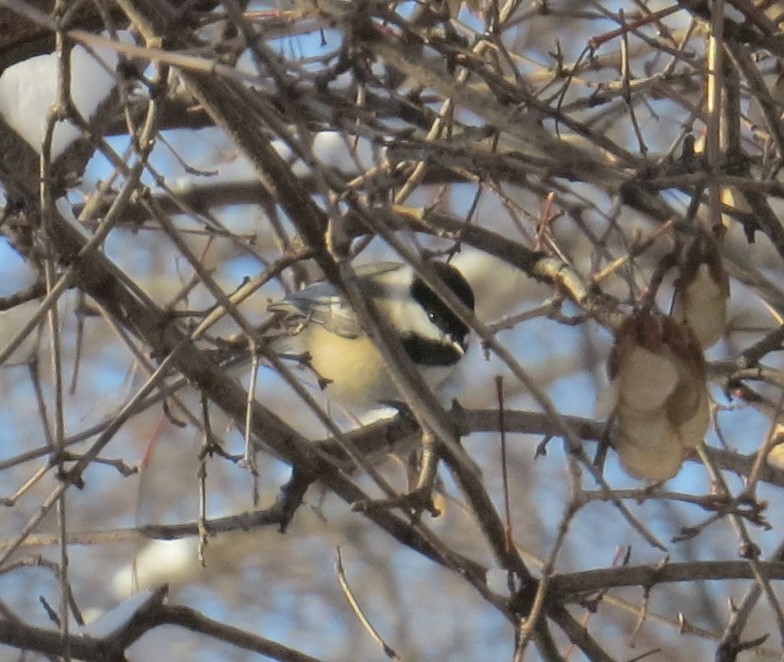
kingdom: Animalia
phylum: Chordata
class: Aves
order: Passeriformes
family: Paridae
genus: Poecile
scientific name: Poecile atricapillus
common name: Black-capped chickadee
